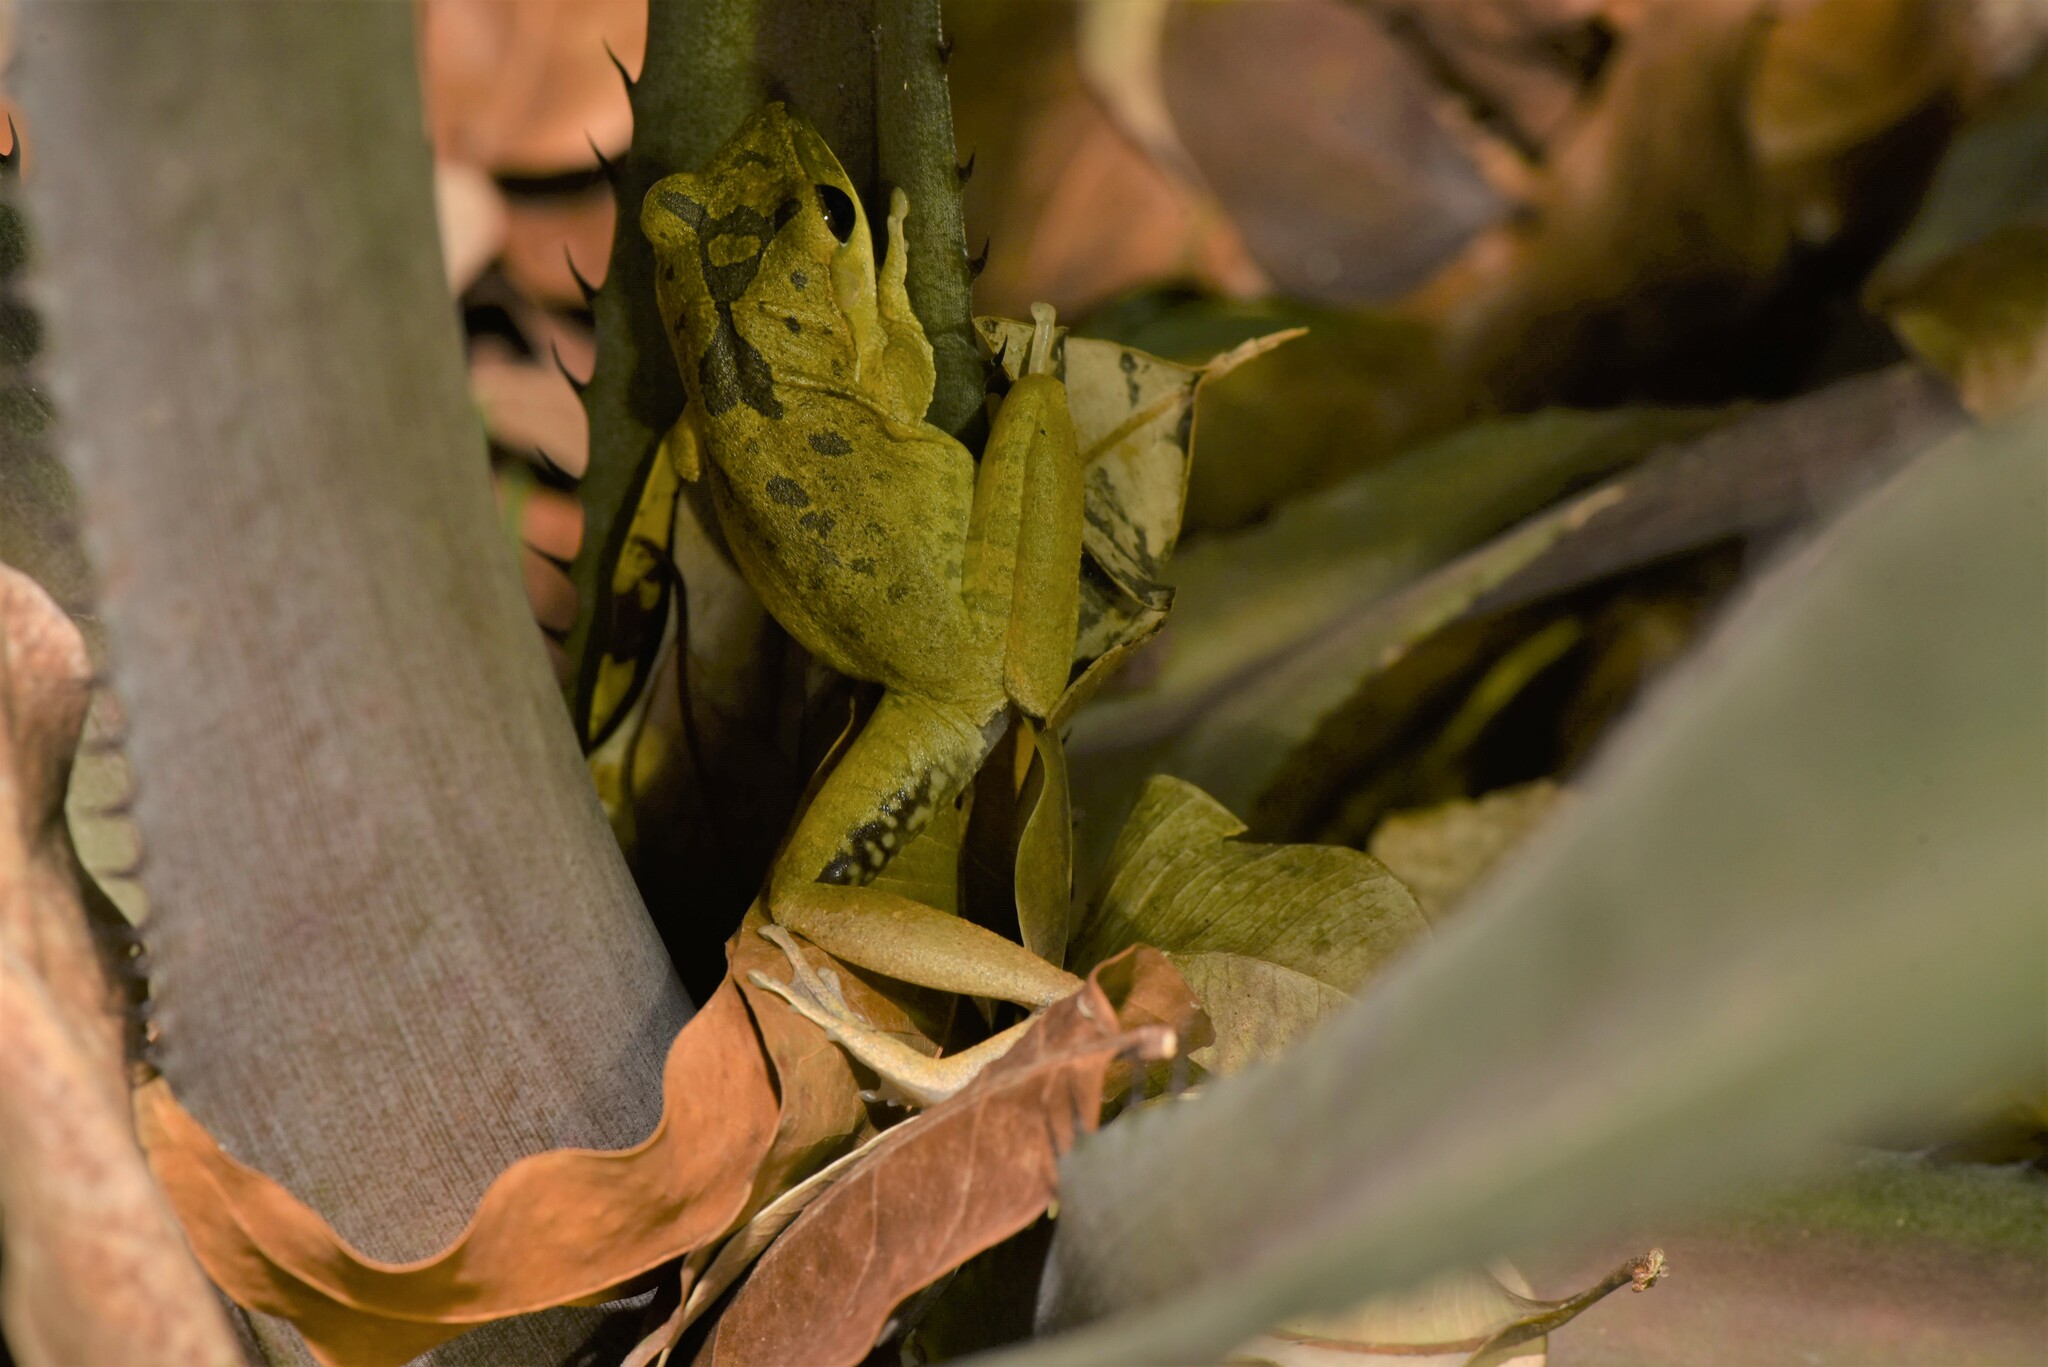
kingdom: Animalia
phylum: Chordata
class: Amphibia
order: Anura
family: Rhacophoridae
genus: Polypedates
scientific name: Polypedates megacephalus
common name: Hong kong whipping frog
